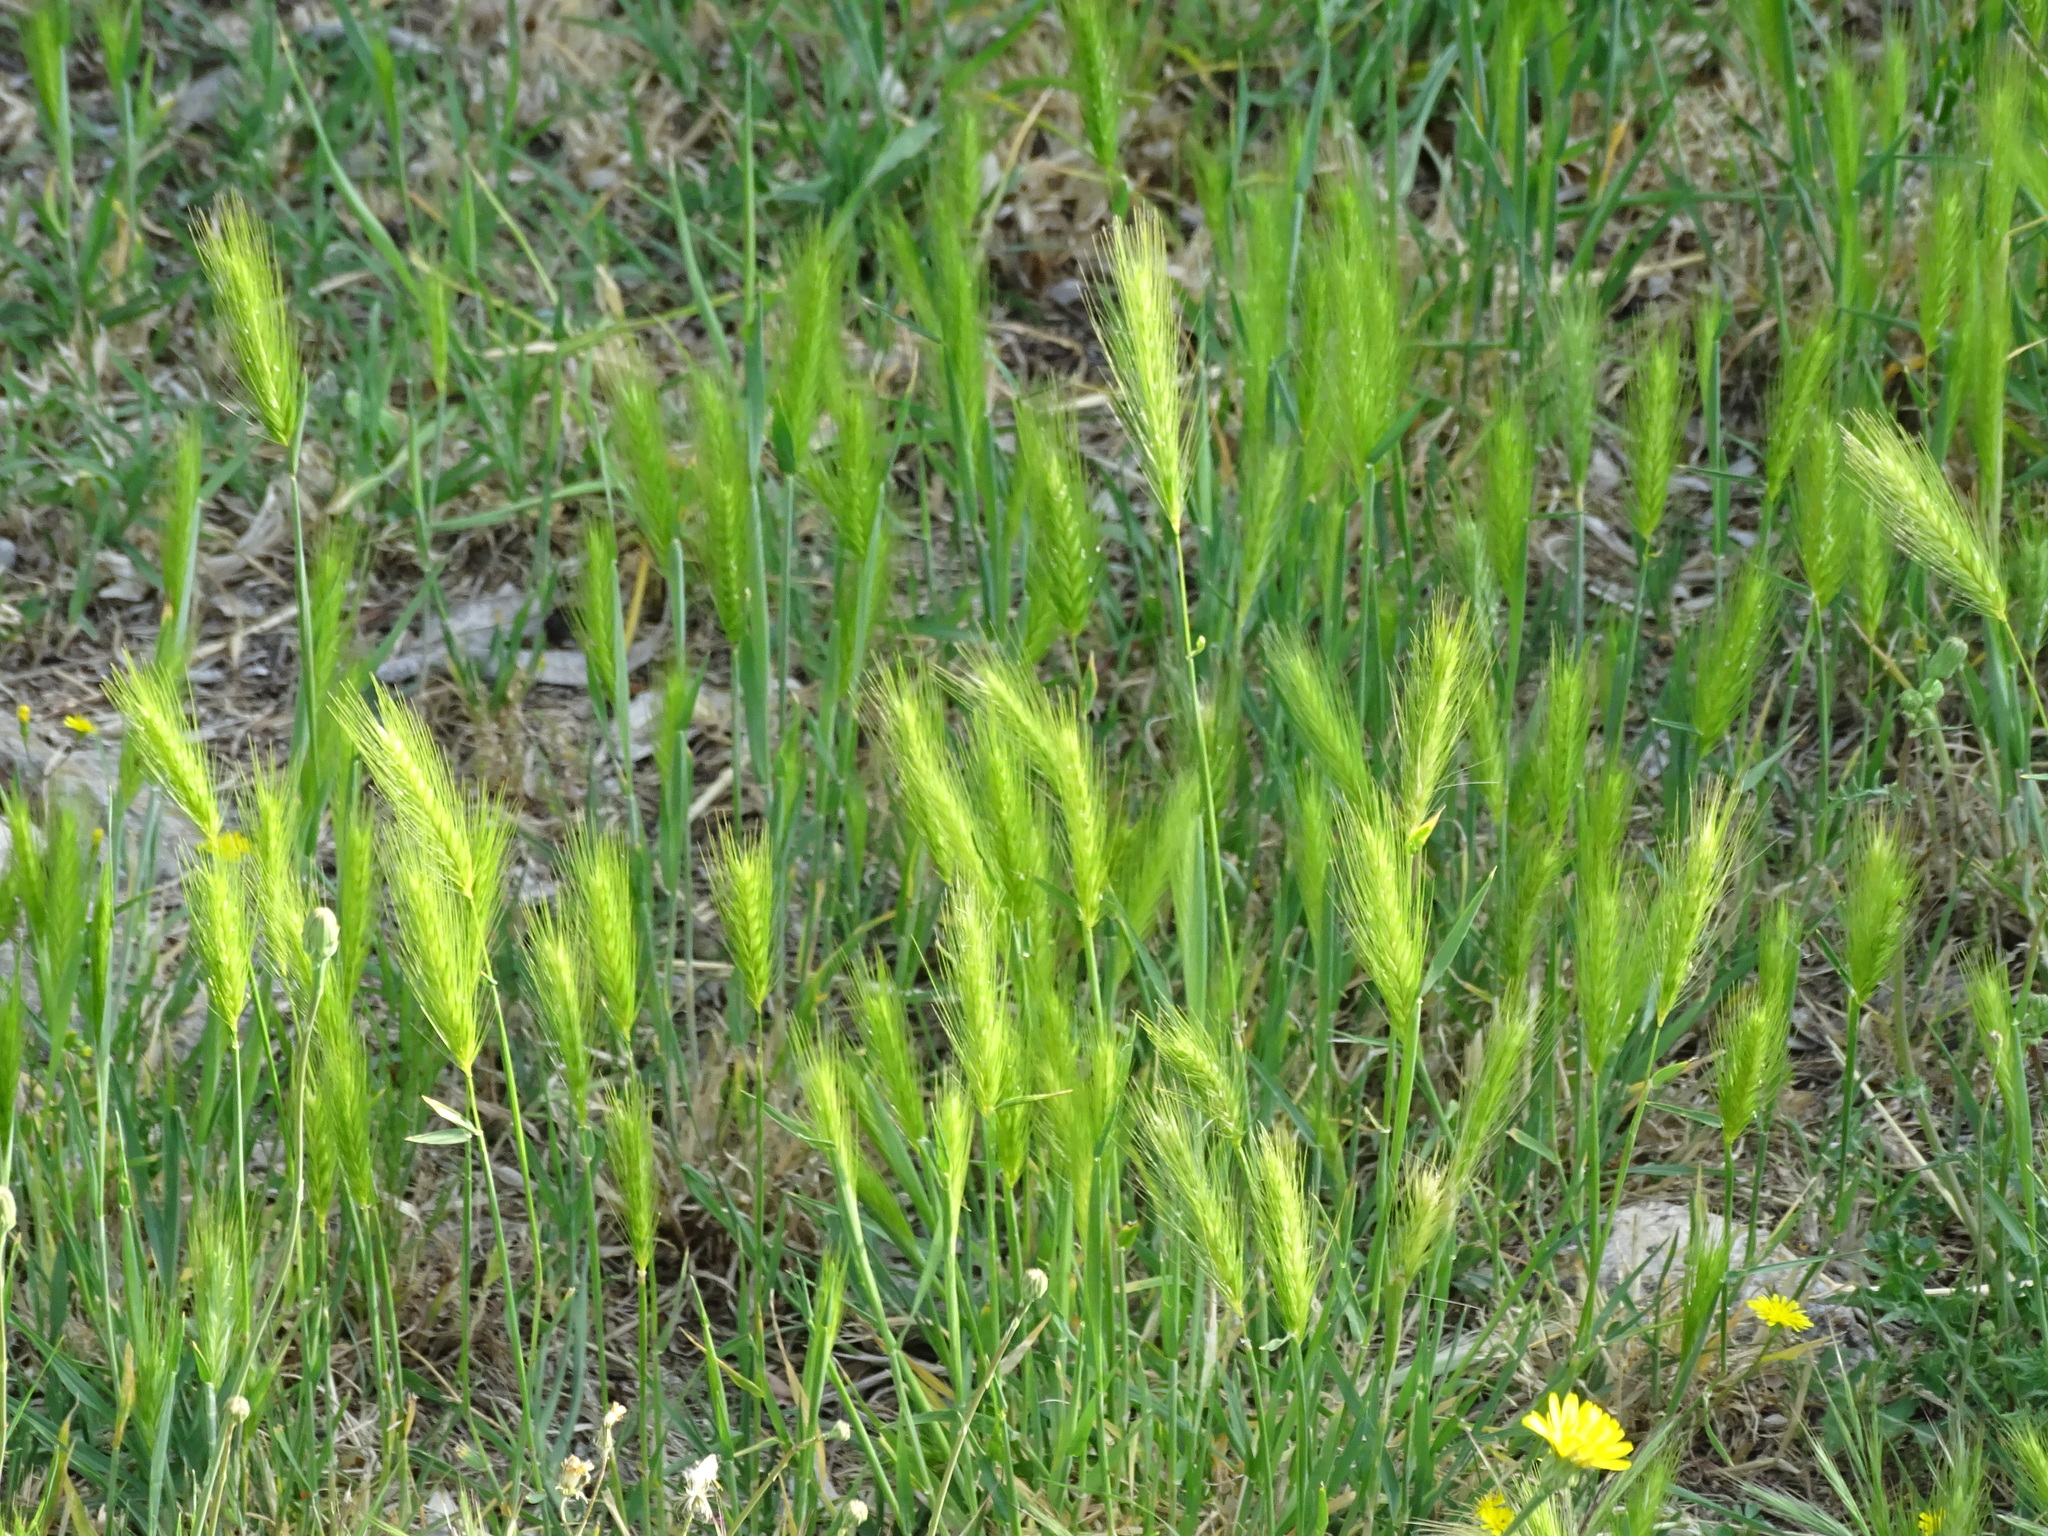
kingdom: Plantae
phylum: Tracheophyta
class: Liliopsida
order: Poales
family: Poaceae
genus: Hordeum
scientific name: Hordeum murinum
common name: Wall barley
